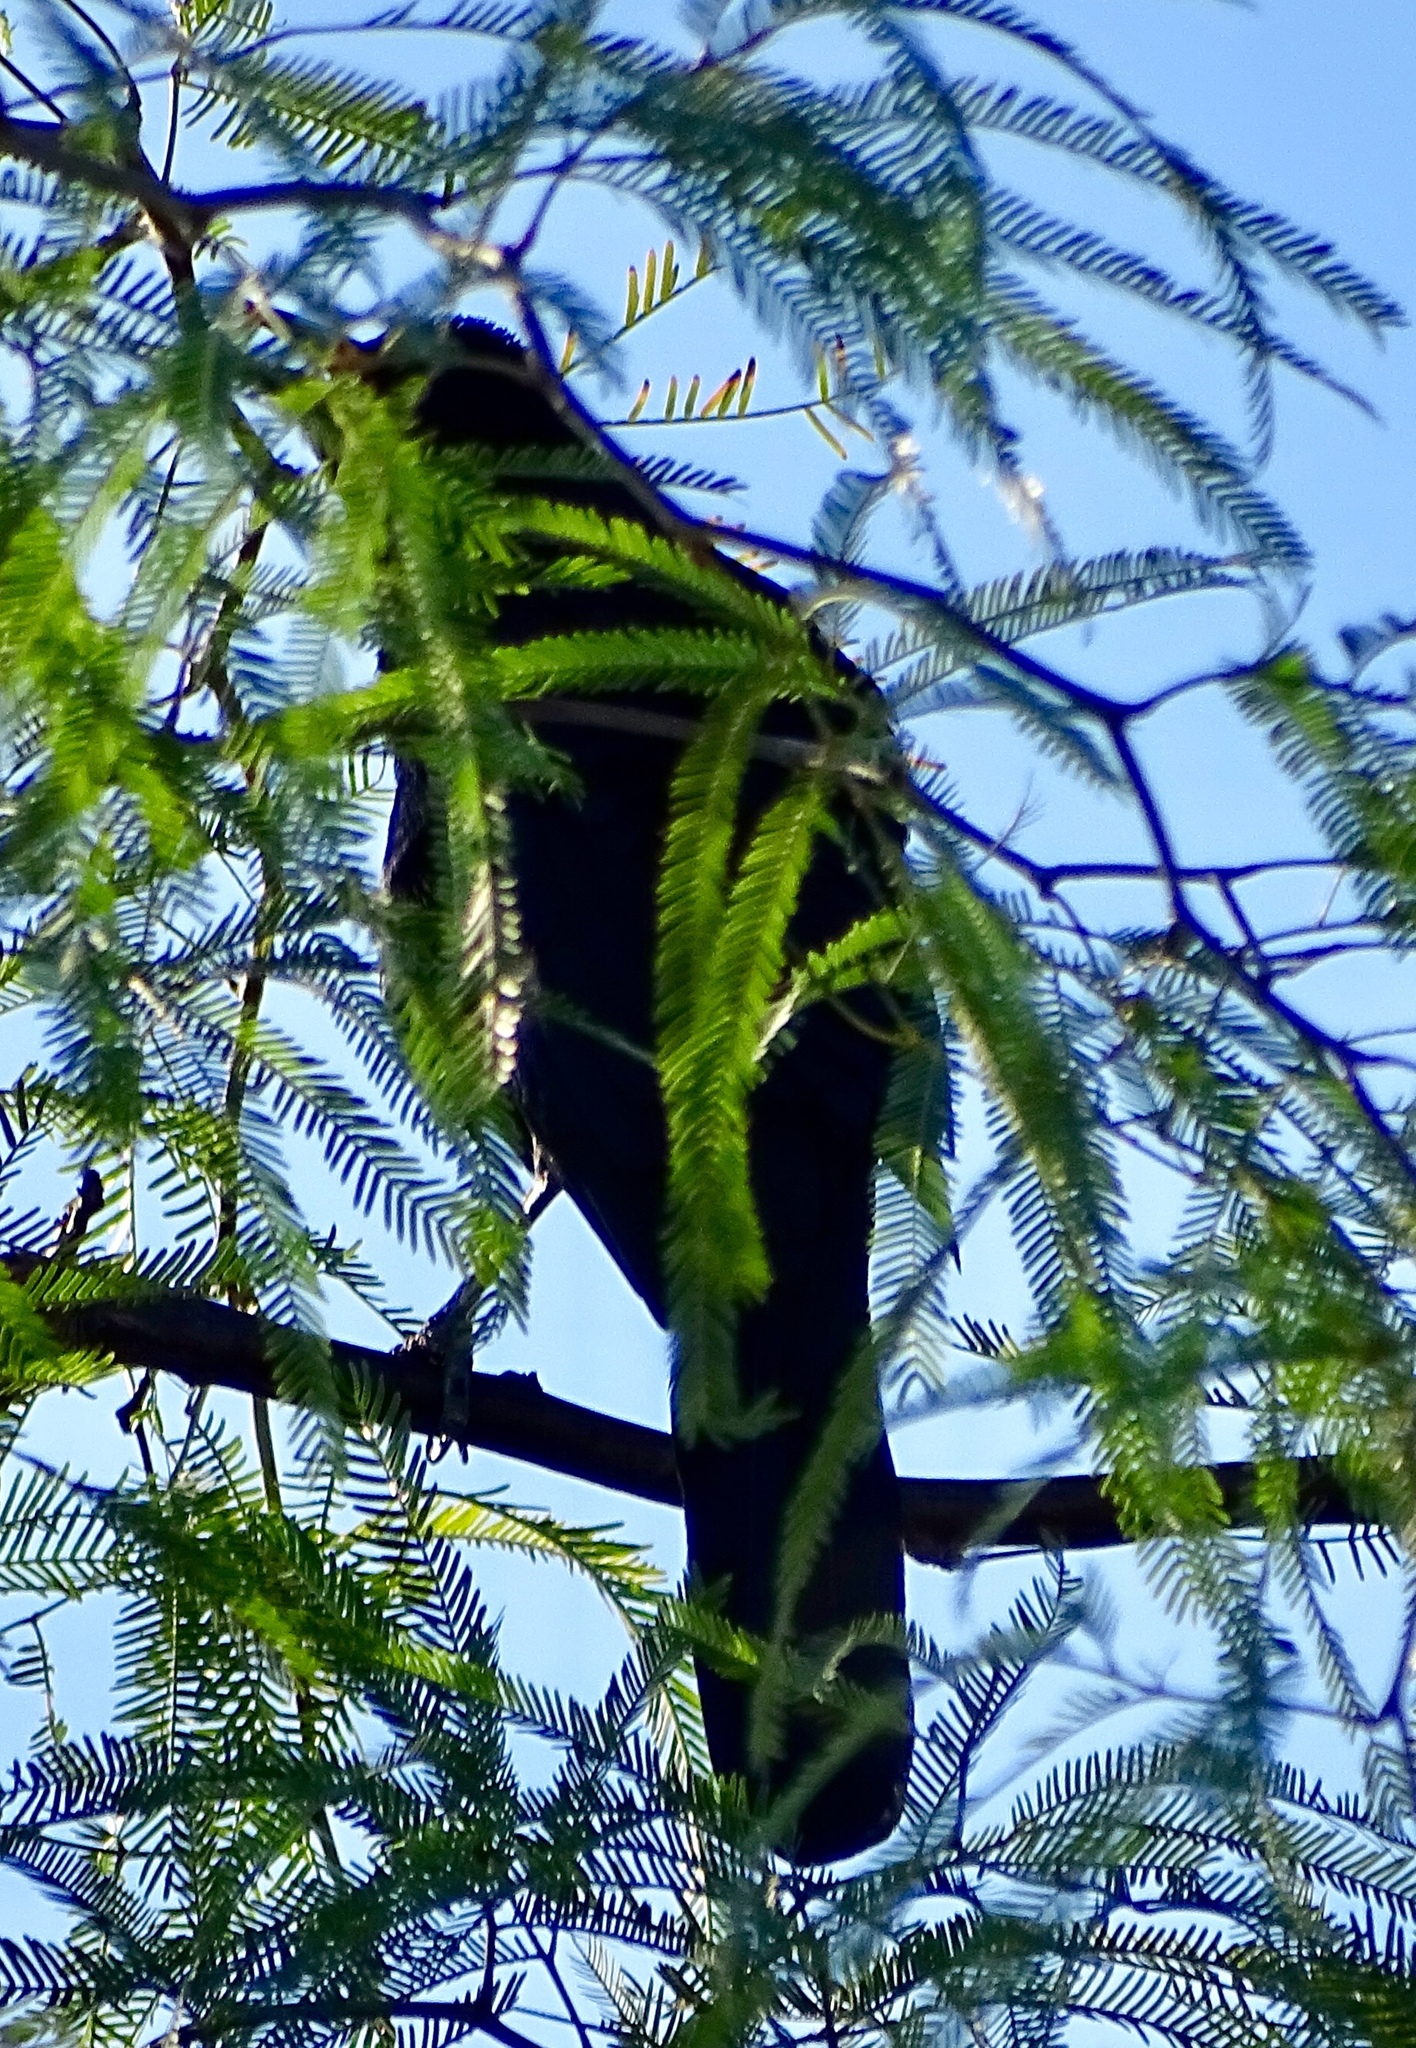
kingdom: Animalia
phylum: Chordata
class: Aves
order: Passeriformes
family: Icteridae
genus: Quiscalus
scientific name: Quiscalus mexicanus
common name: Great-tailed grackle
